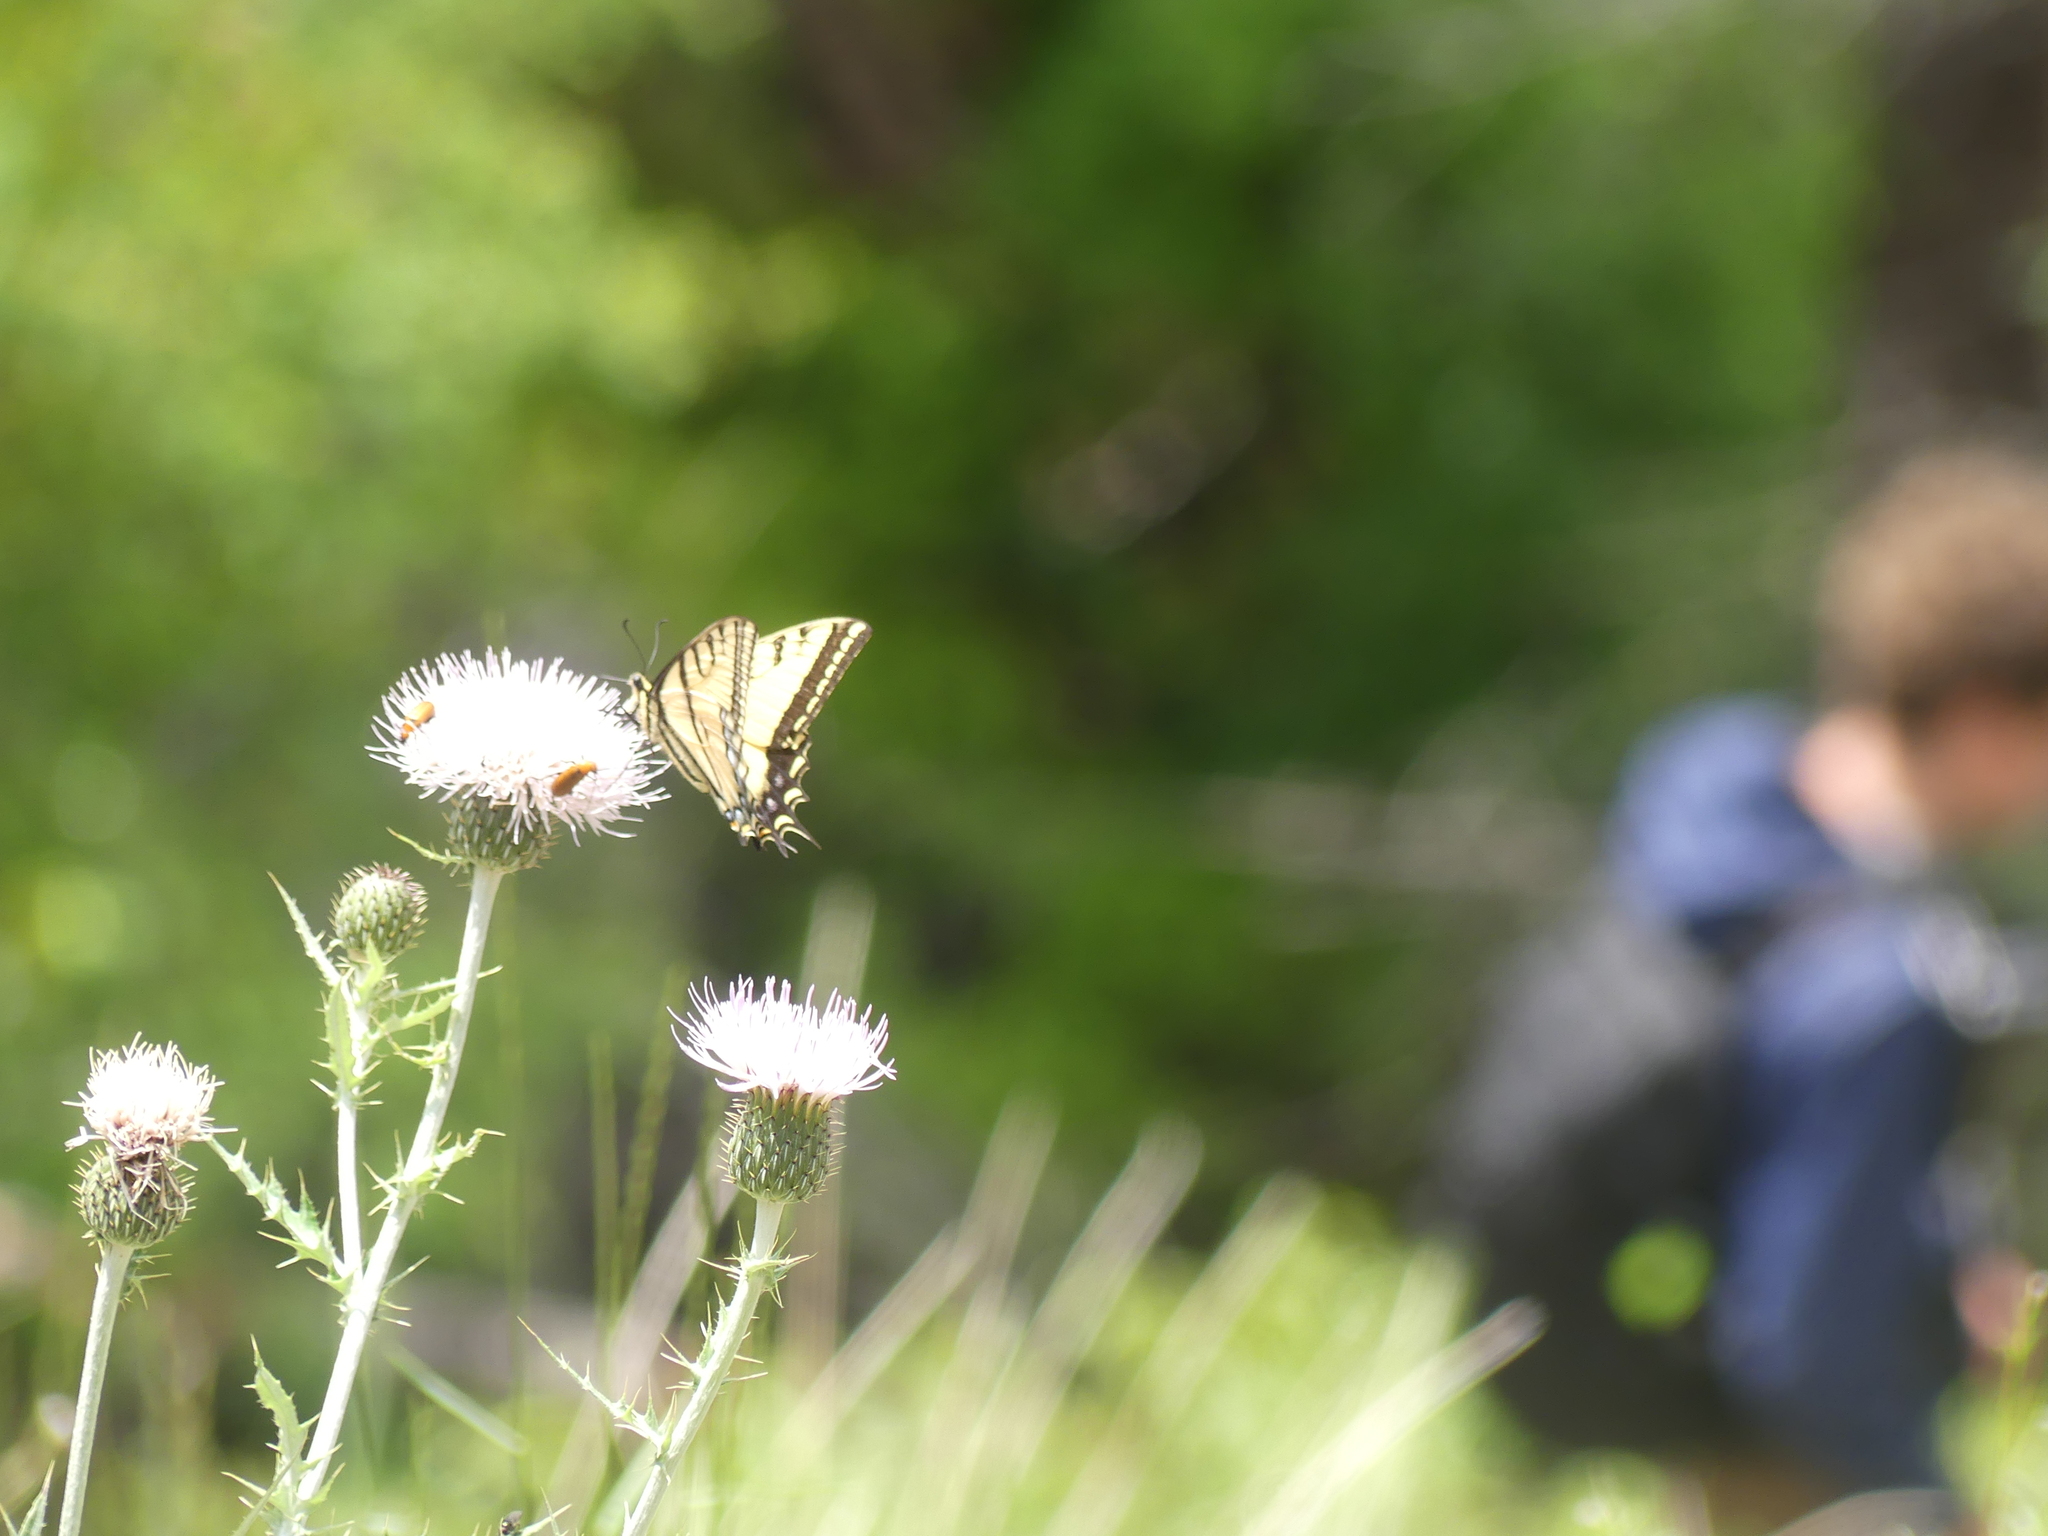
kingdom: Animalia
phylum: Arthropoda
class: Insecta
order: Lepidoptera
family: Papilionidae
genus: Papilio
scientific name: Papilio multicaudata
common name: Two-tailed tiger swallowtail
